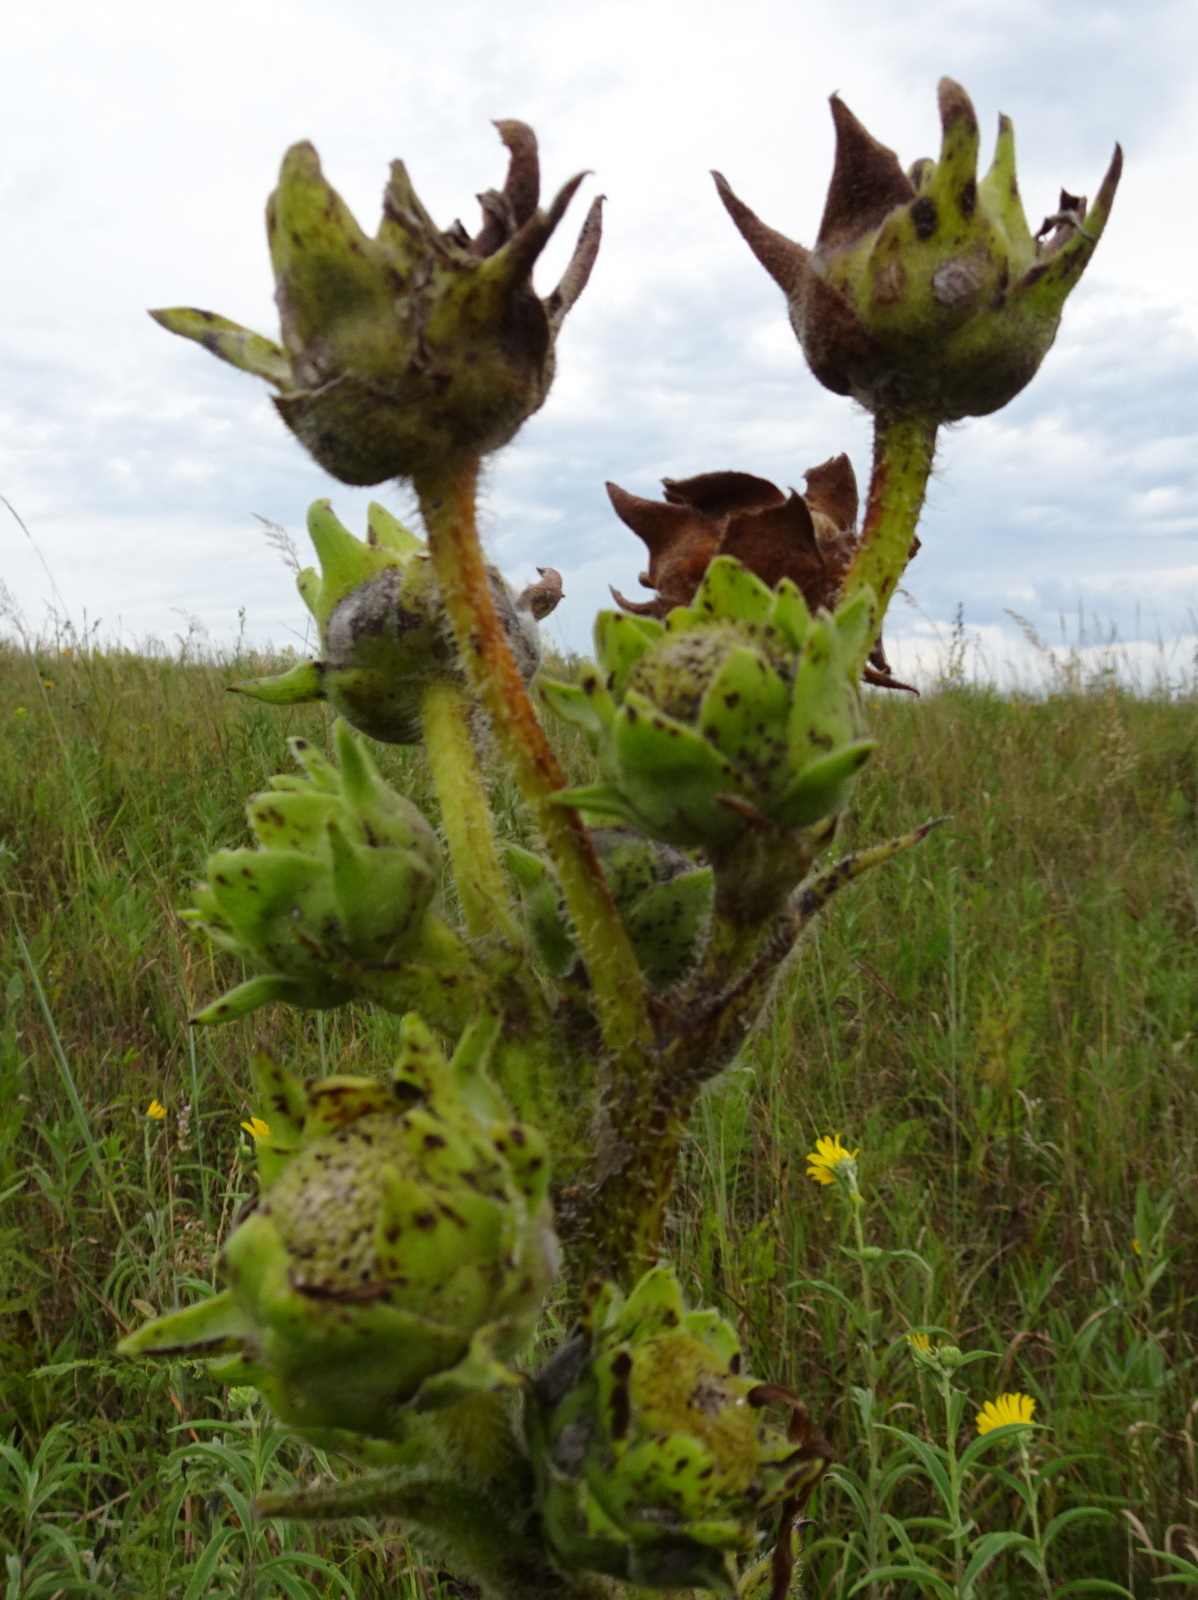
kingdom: Plantae
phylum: Tracheophyta
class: Magnoliopsida
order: Asterales
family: Asteraceae
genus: Silphium
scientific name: Silphium laciniatum
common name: Polarplant
